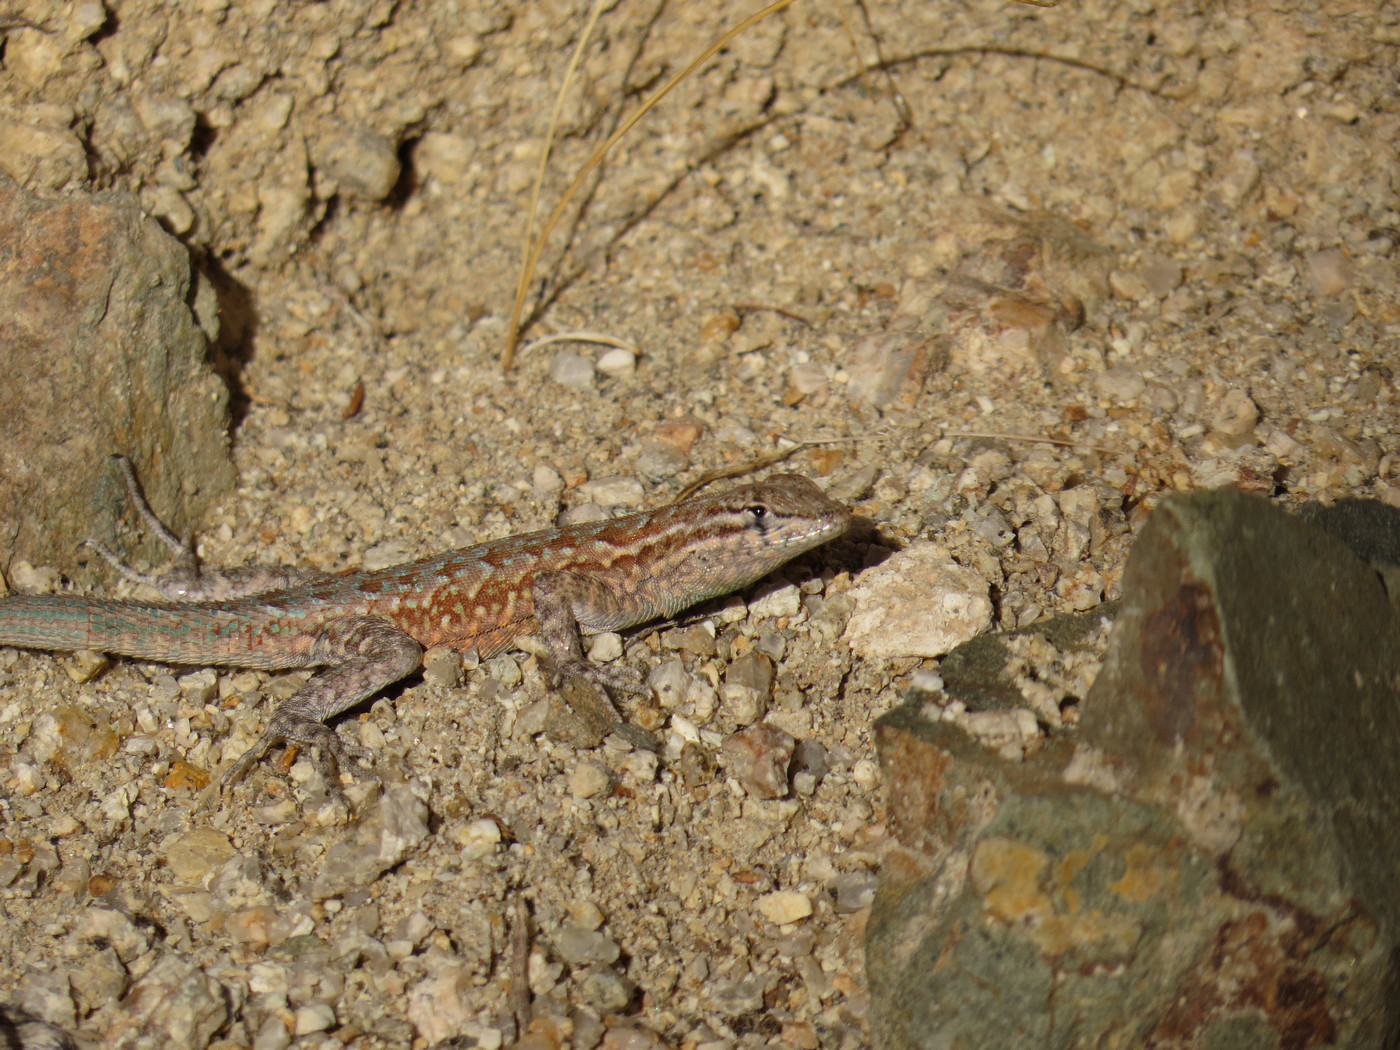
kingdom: Animalia
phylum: Chordata
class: Squamata
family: Phrynosomatidae
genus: Uta
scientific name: Uta stansburiana
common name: Side-blotched lizard
